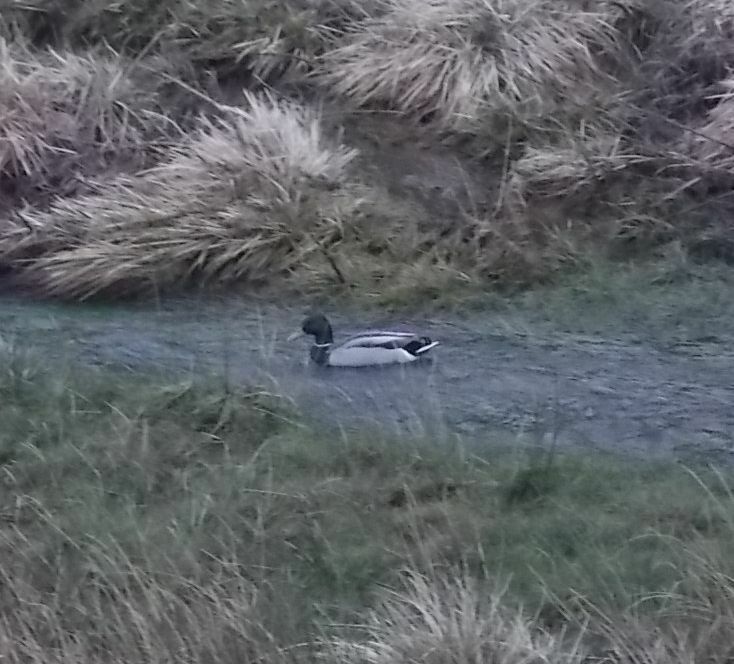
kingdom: Animalia
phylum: Chordata
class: Aves
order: Anseriformes
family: Anatidae
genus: Anas
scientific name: Anas platyrhynchos
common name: Mallard
